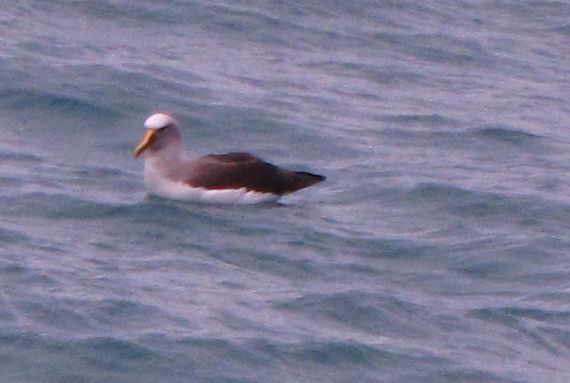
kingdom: Animalia
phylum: Chordata
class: Aves
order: Procellariiformes
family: Diomedeidae
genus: Thalassarche
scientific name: Thalassarche bulleri
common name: Buller's albatross
